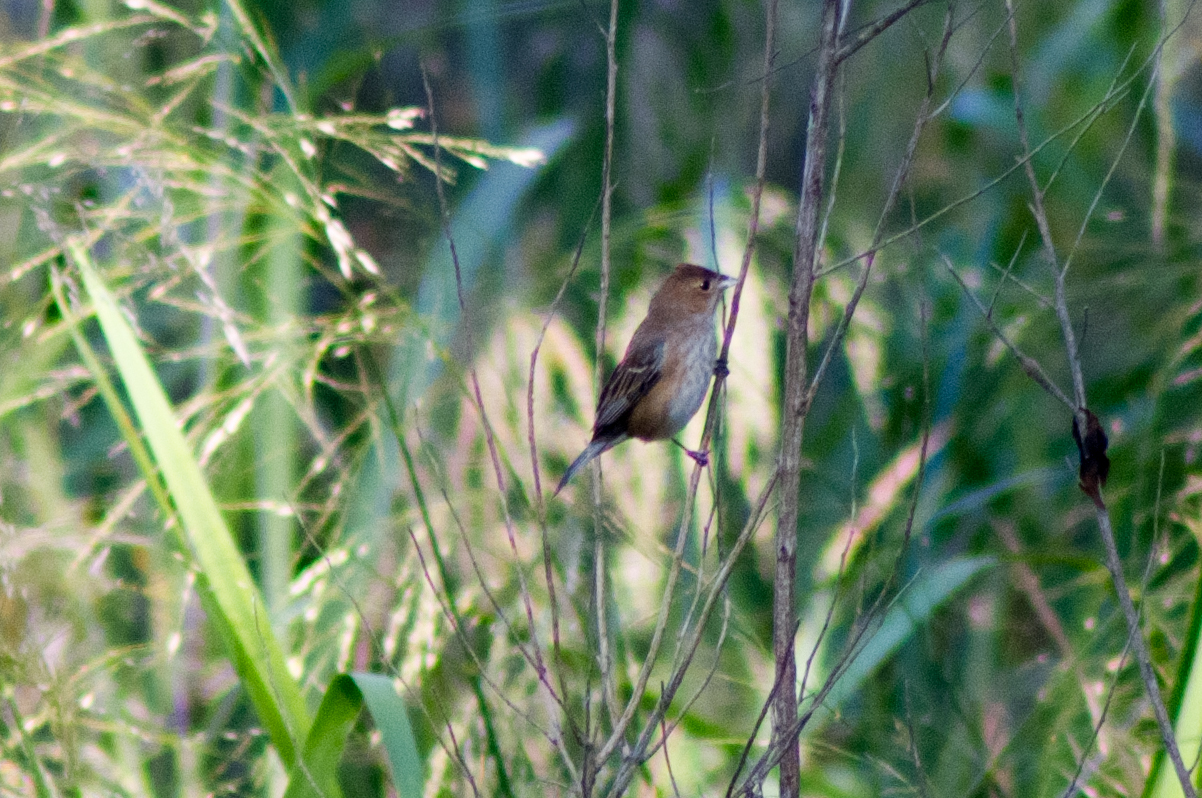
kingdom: Animalia
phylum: Chordata
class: Aves
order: Passeriformes
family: Cardinalidae
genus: Passerina
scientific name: Passerina cyanea
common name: Indigo bunting
